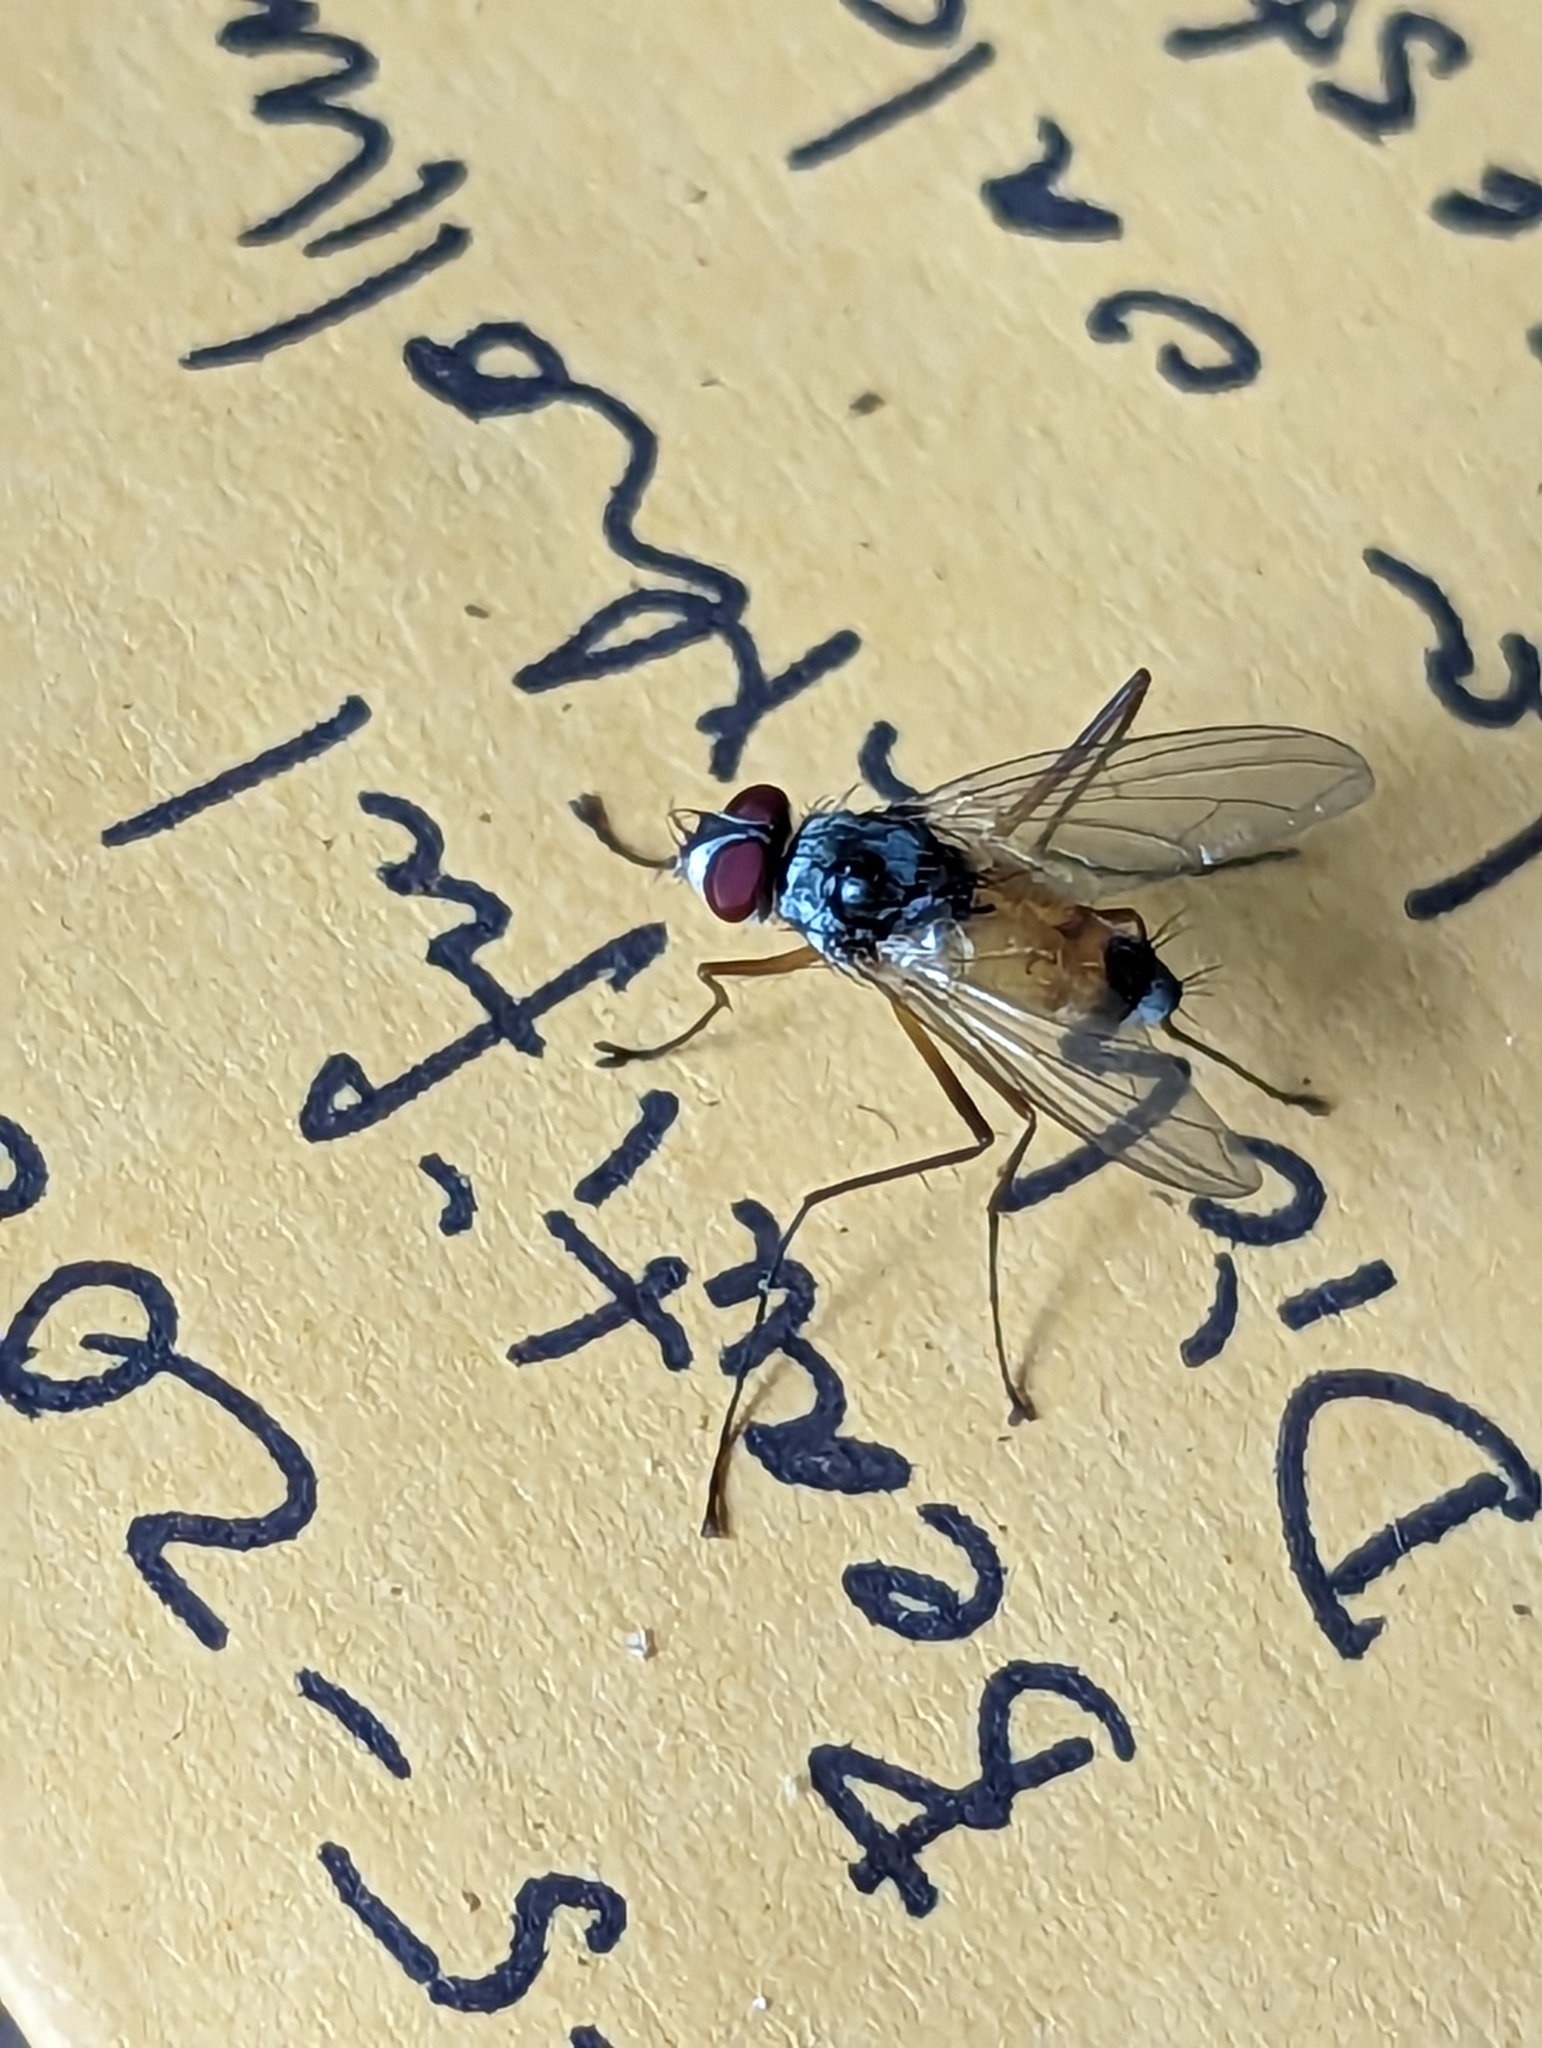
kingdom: Animalia
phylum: Arthropoda
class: Insecta
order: Diptera
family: Tachinidae
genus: Cholomyia
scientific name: Cholomyia inaequipes
